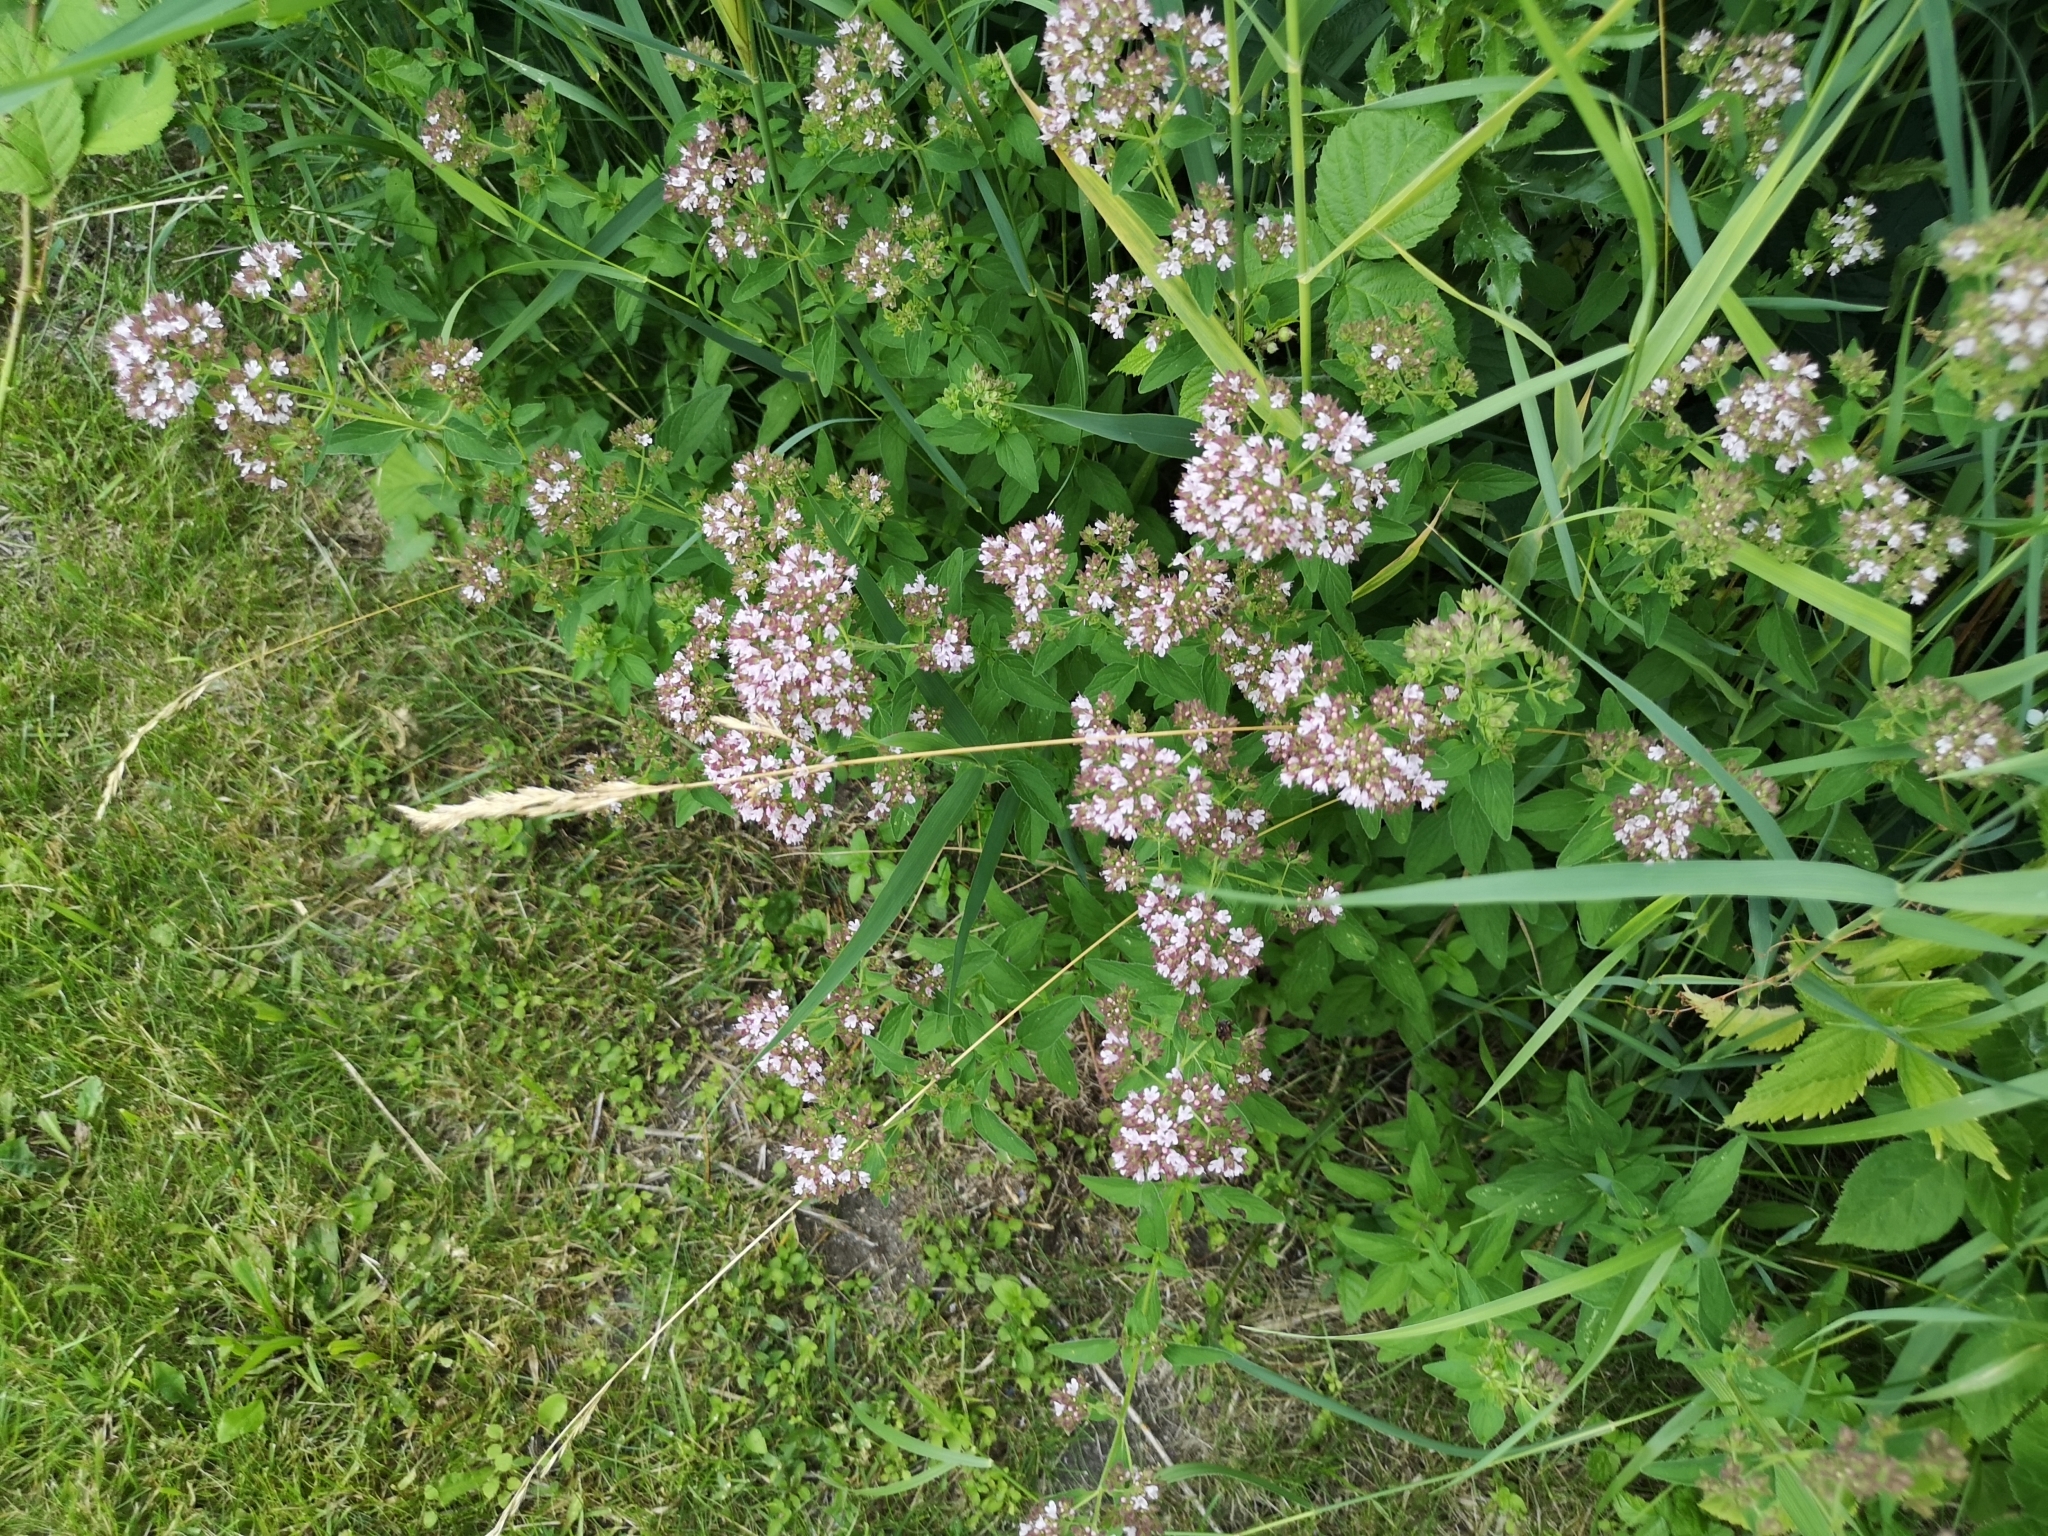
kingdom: Plantae
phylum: Tracheophyta
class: Magnoliopsida
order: Lamiales
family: Lamiaceae
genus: Origanum
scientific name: Origanum vulgare
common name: Wild marjoram
